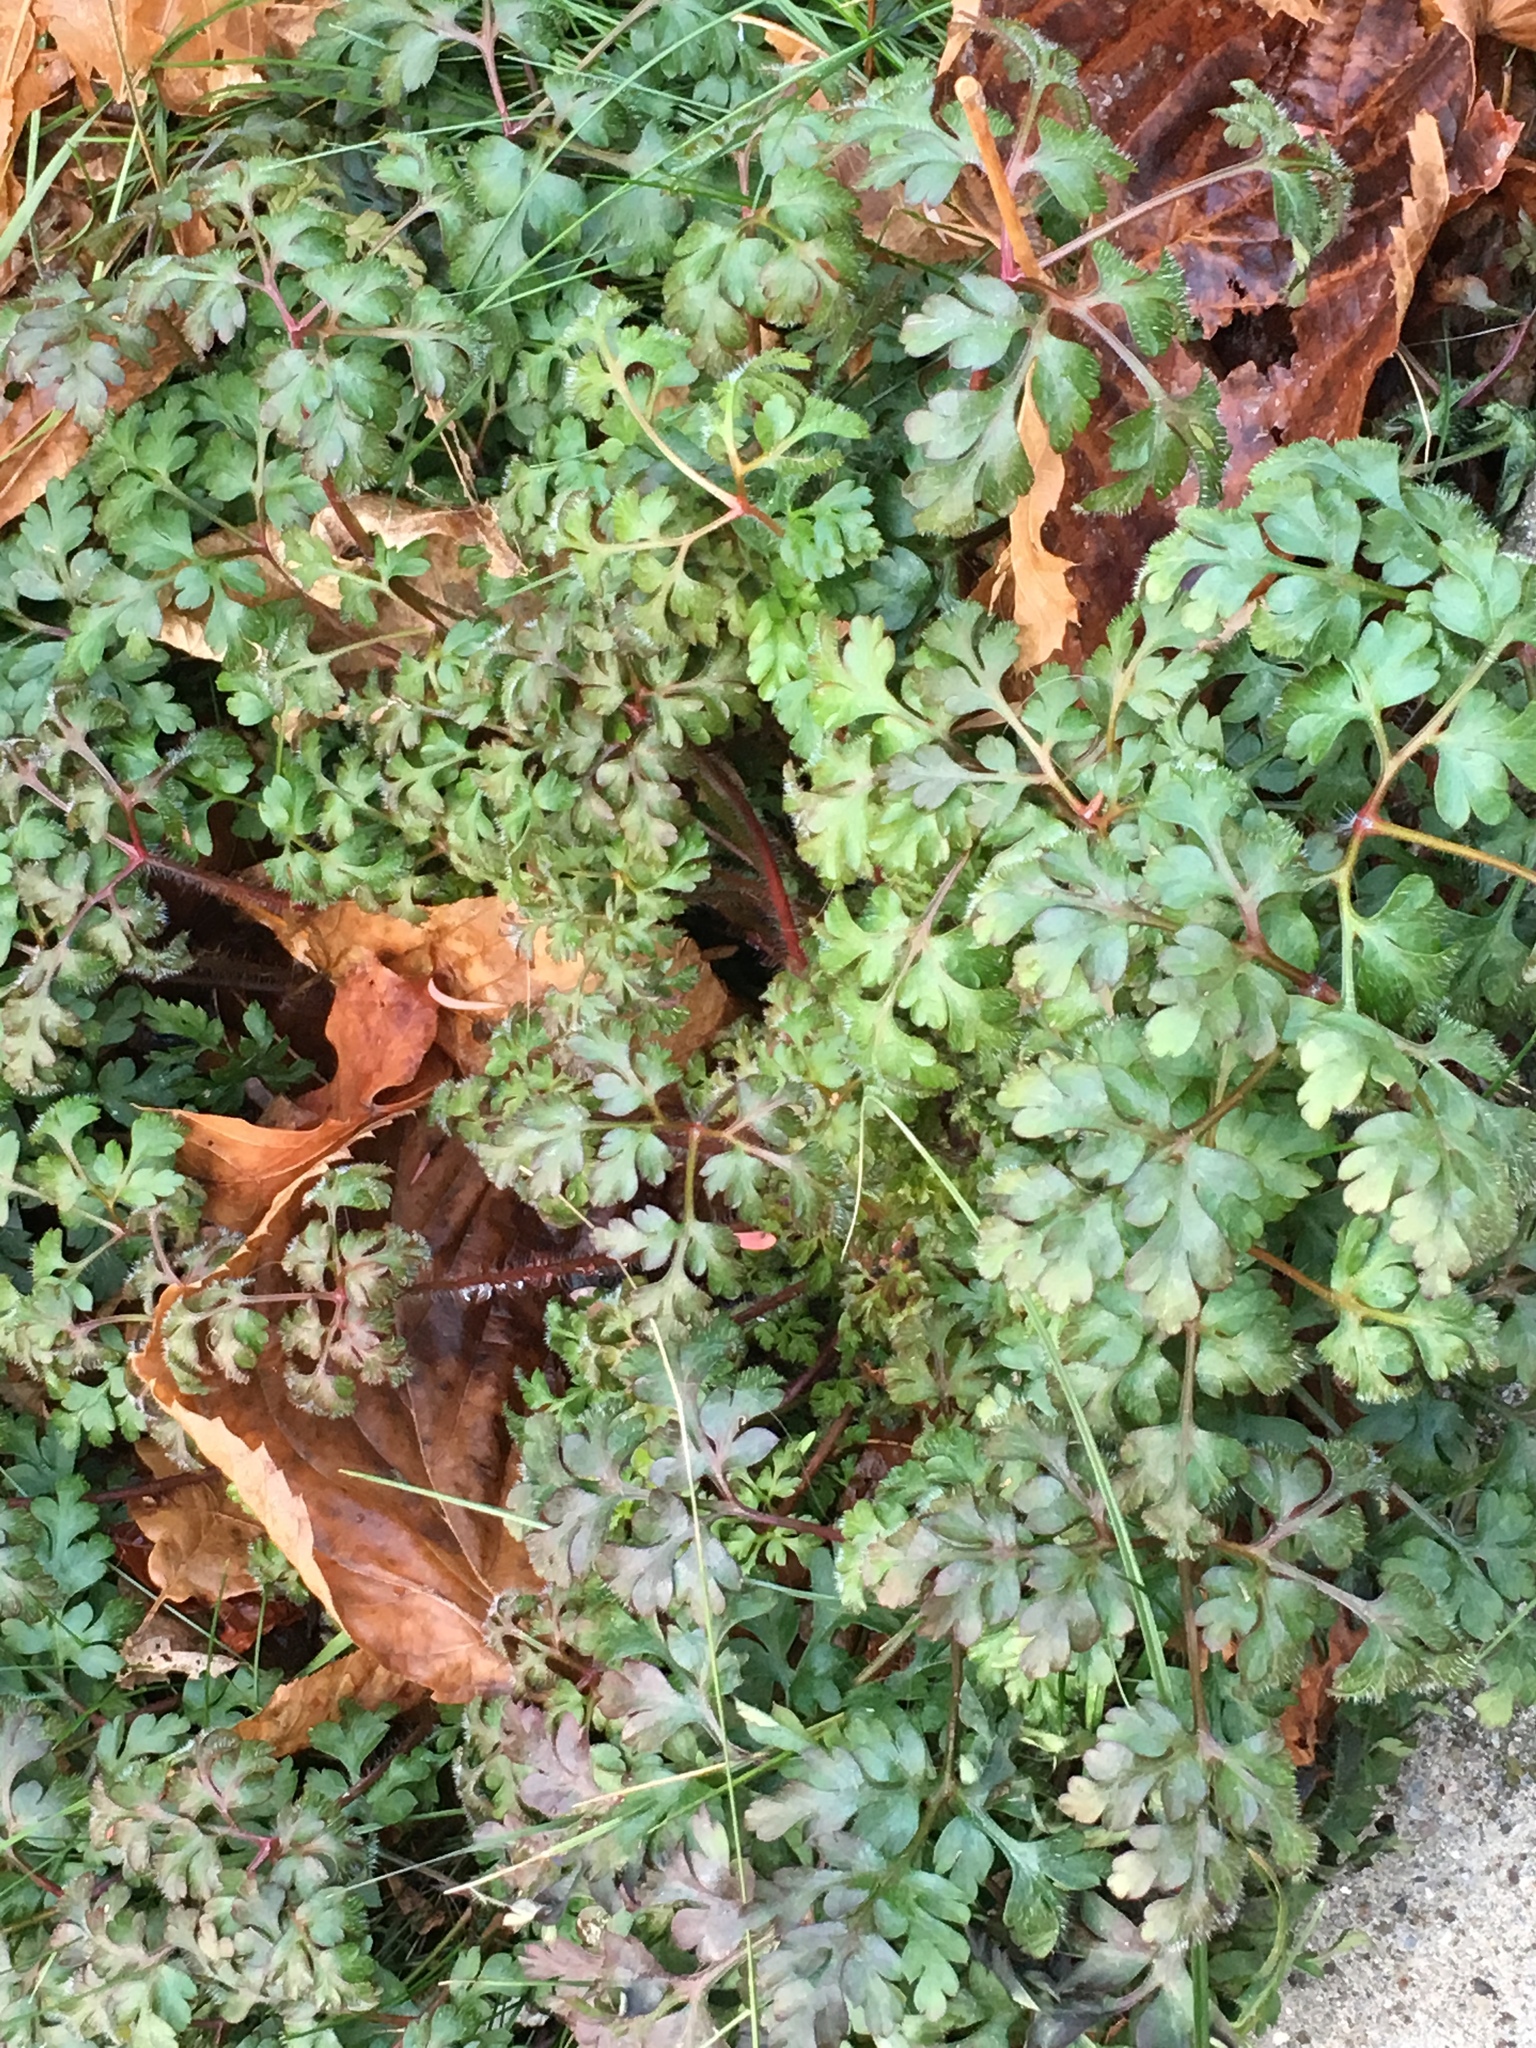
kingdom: Plantae
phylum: Tracheophyta
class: Magnoliopsida
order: Geraniales
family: Geraniaceae
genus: Geranium
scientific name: Geranium robertianum
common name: Herb-robert
